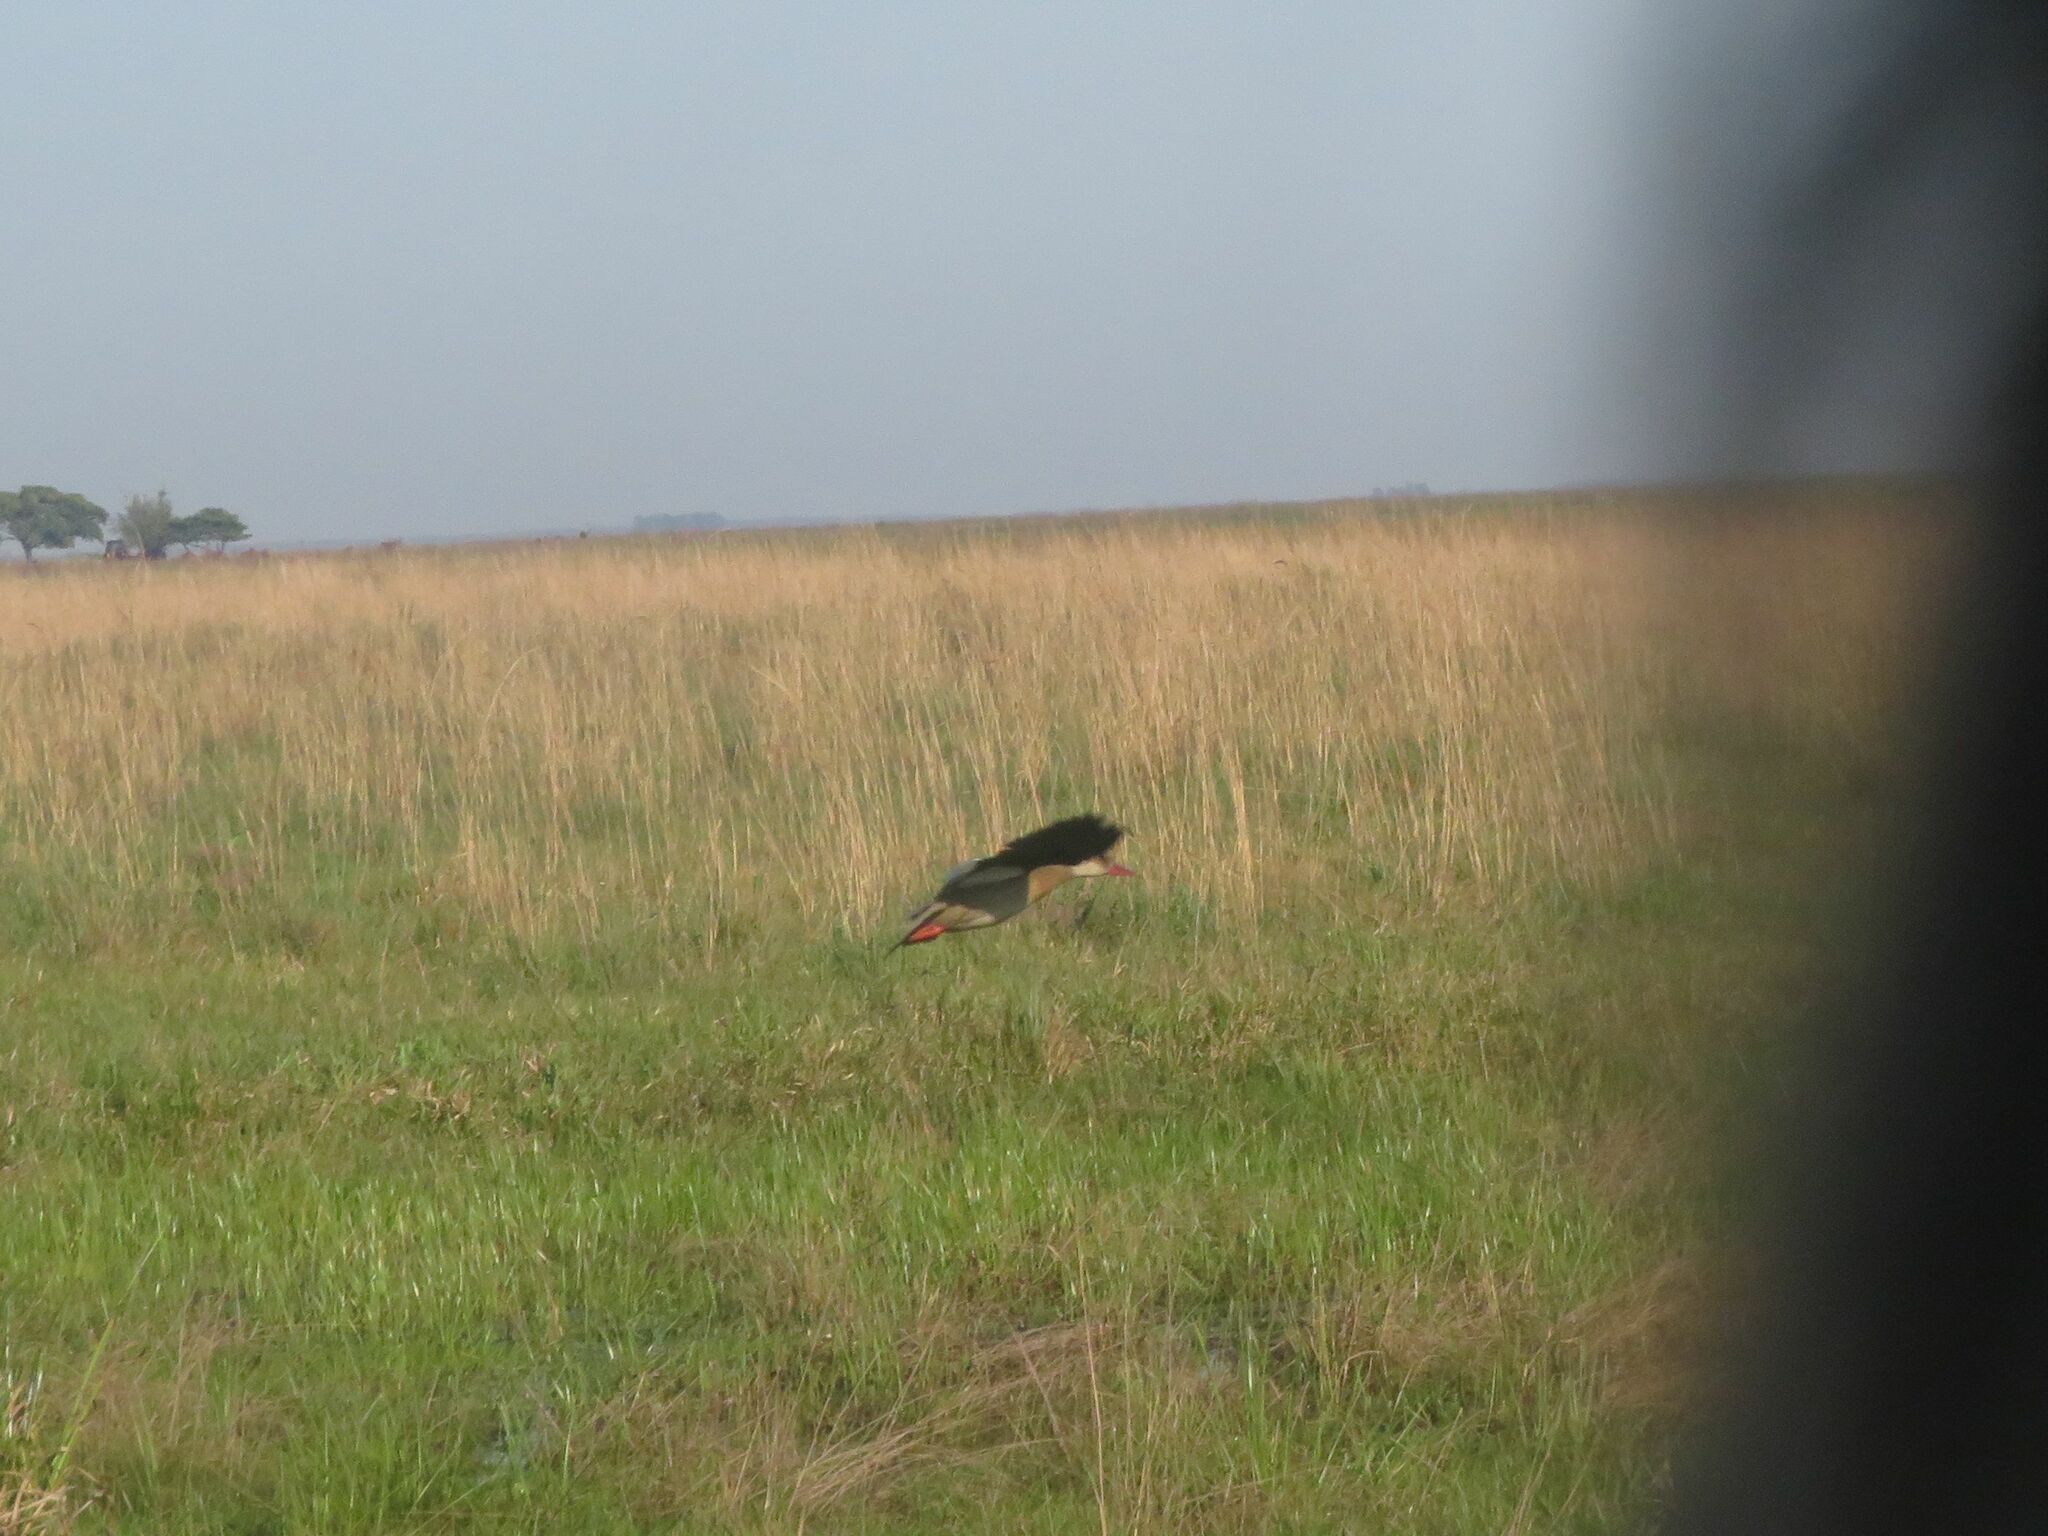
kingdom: Animalia
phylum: Chordata
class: Aves
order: Anseriformes
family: Anatidae
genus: Amazonetta
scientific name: Amazonetta brasiliensis
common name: Brazilian teal
